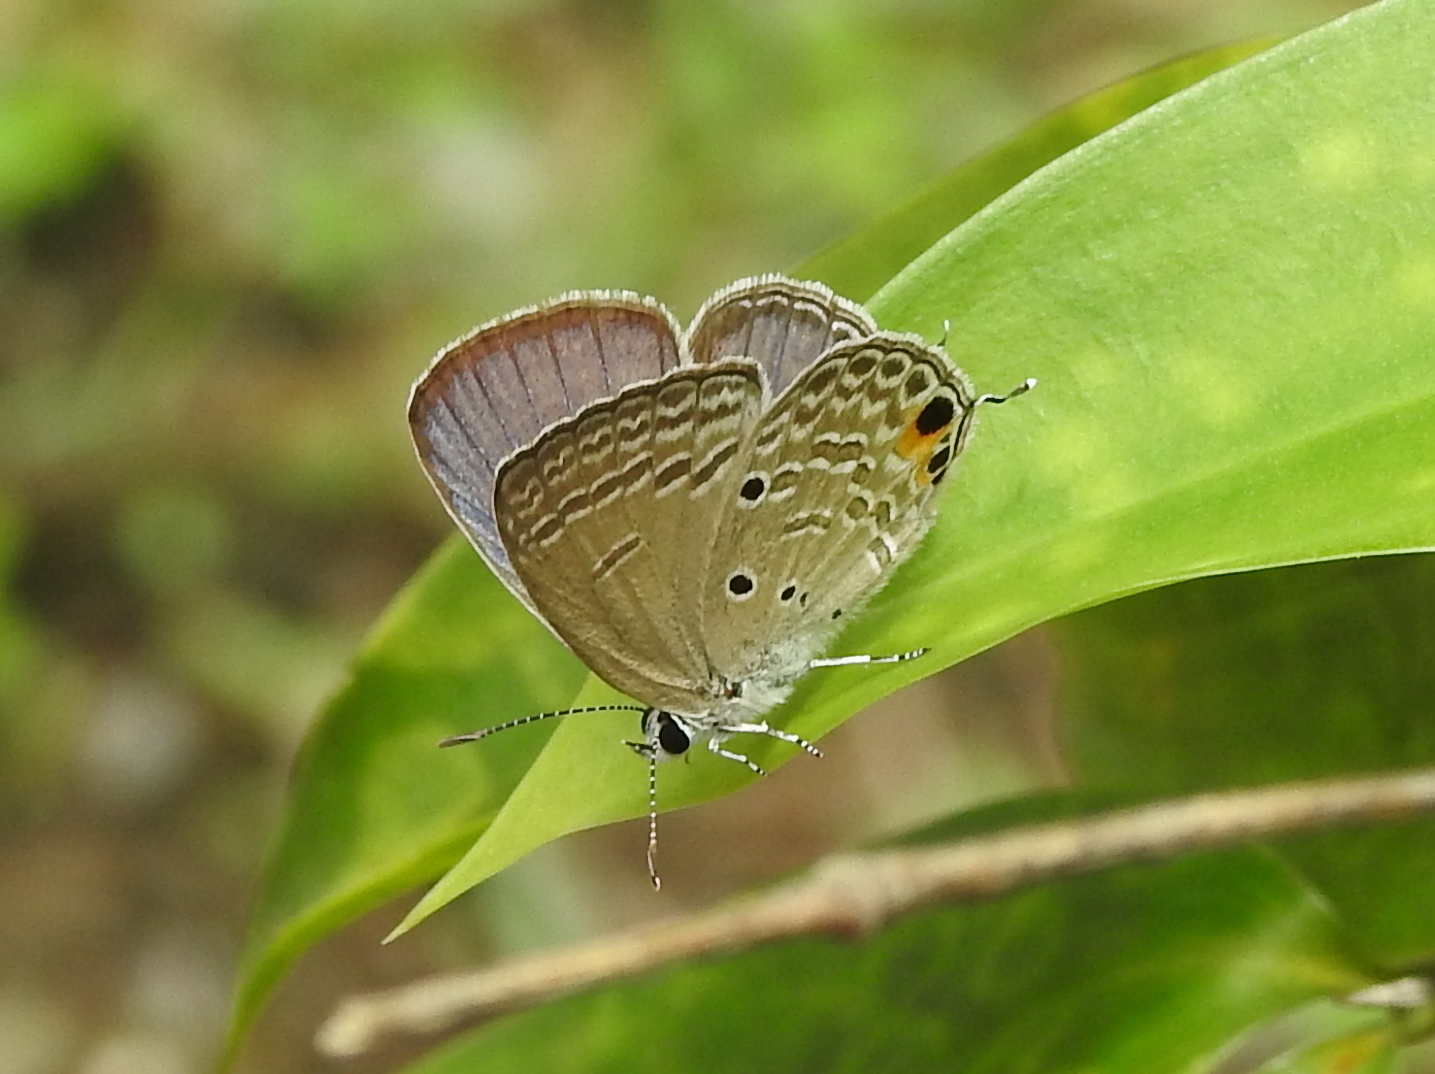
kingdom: Animalia
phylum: Arthropoda
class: Insecta
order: Lepidoptera
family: Lycaenidae
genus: Luthrodes
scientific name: Luthrodes pandava
